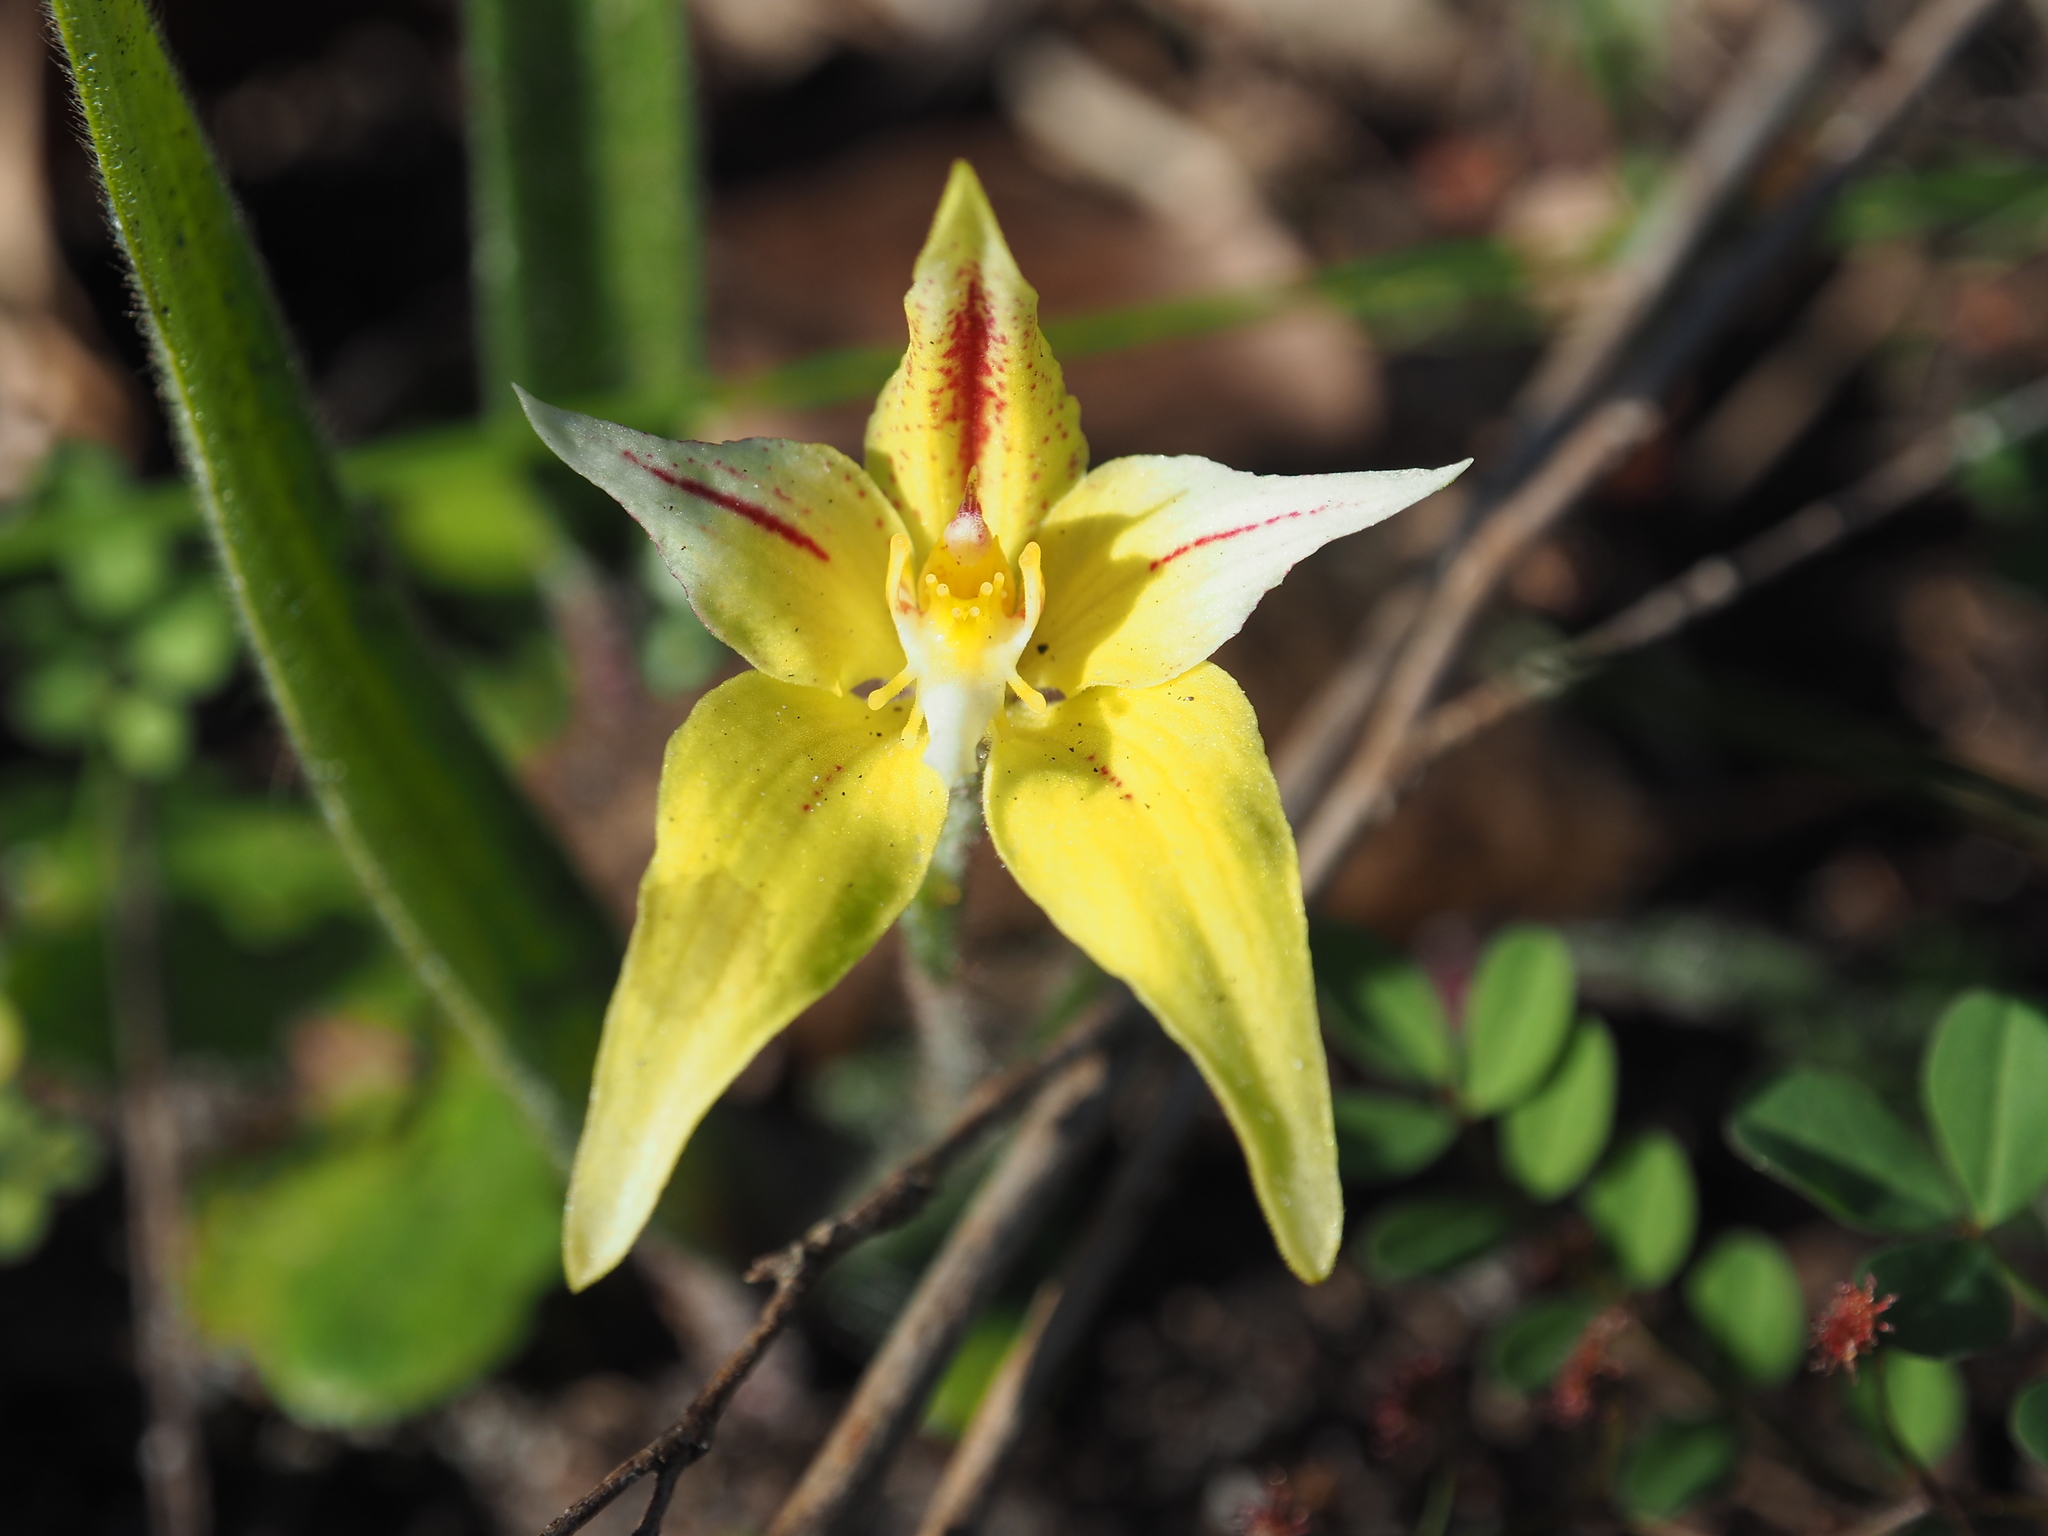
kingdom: Plantae
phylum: Tracheophyta
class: Liliopsida
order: Asparagales
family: Orchidaceae
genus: Caladenia
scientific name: Caladenia flava
